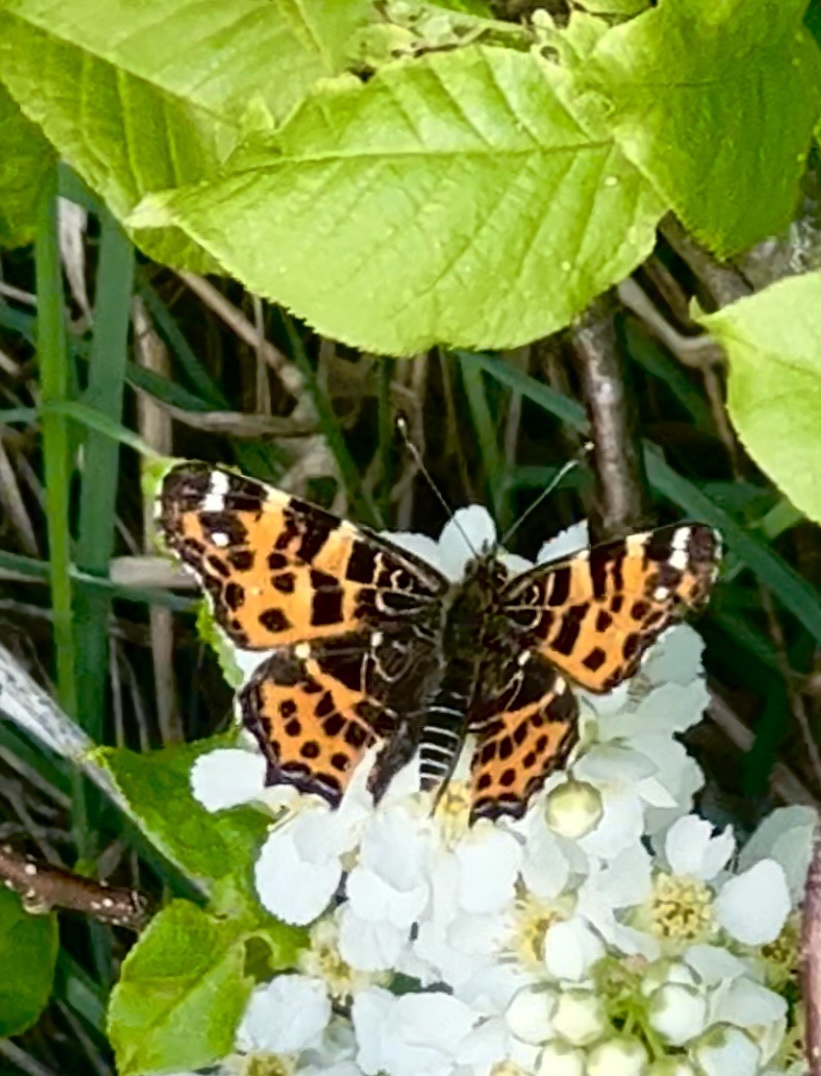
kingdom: Animalia
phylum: Arthropoda
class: Insecta
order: Lepidoptera
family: Nymphalidae
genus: Araschnia
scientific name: Araschnia levana
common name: Map butterfly
